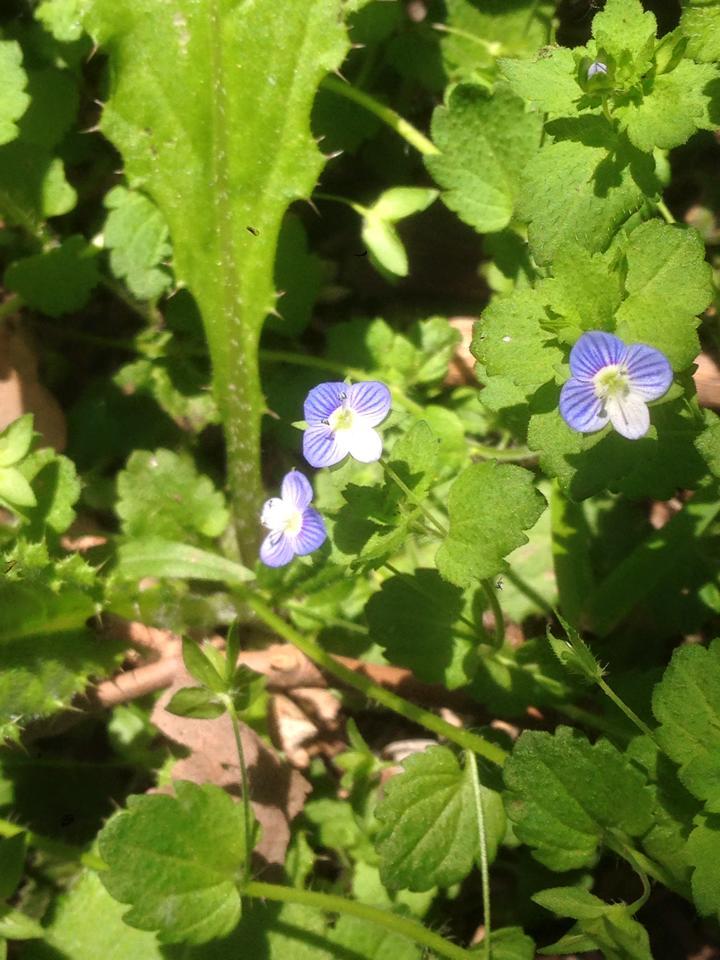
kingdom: Plantae
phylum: Tracheophyta
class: Magnoliopsida
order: Lamiales
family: Plantaginaceae
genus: Veronica
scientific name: Veronica persica
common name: Common field-speedwell
